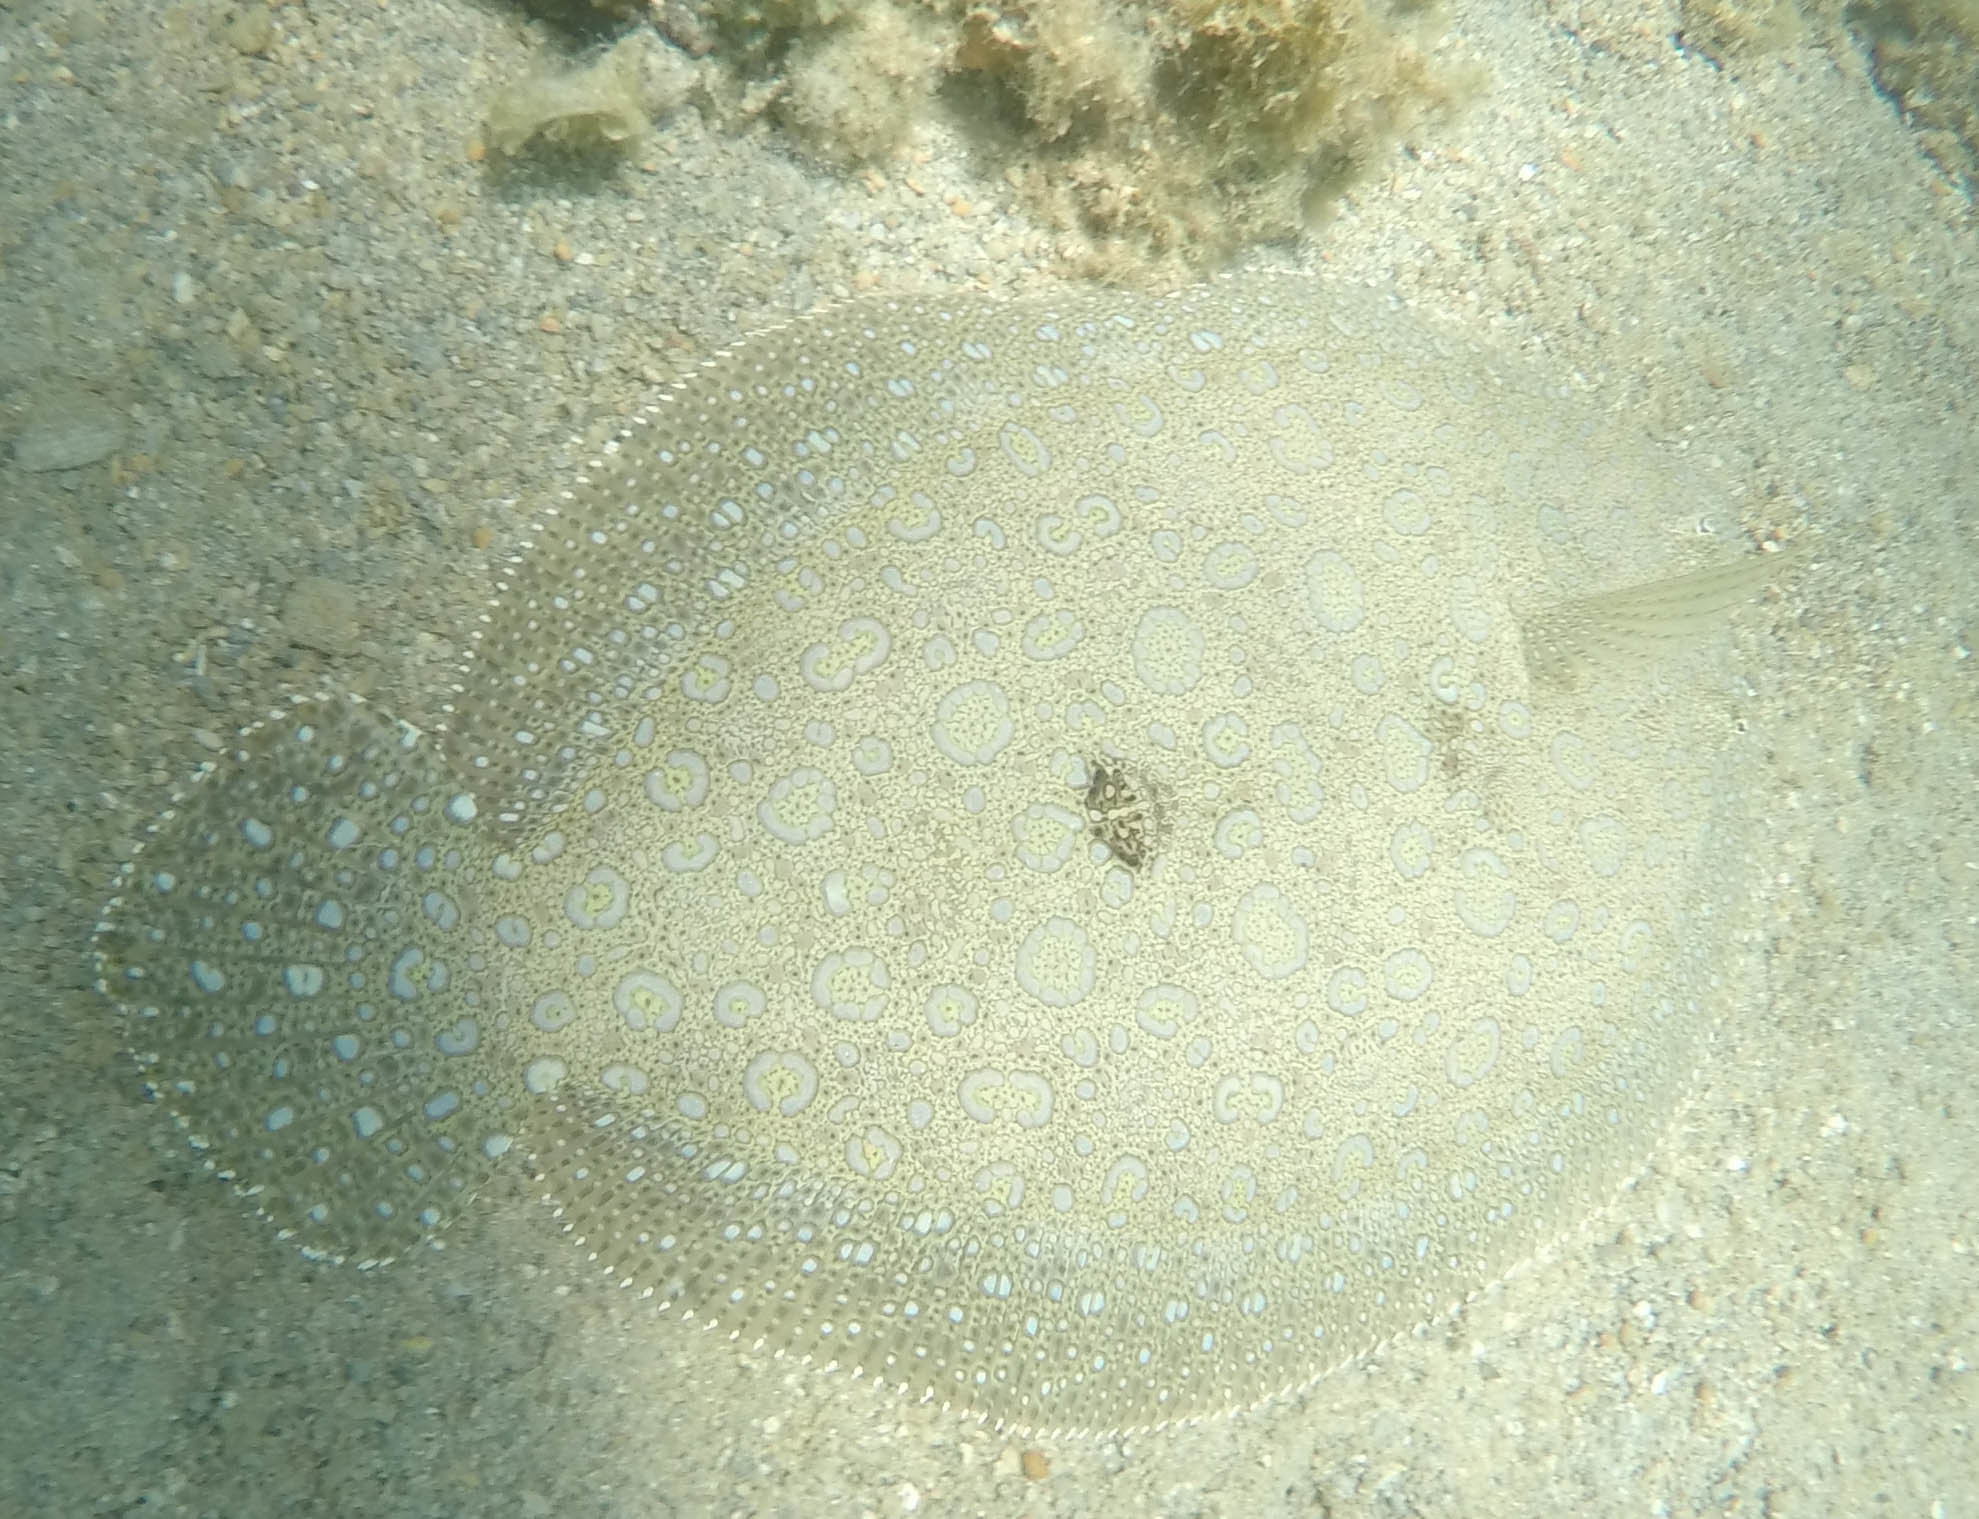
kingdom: Animalia
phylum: Chordata
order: Pleuronectiformes
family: Bothidae
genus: Bothus
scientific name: Bothus mancus
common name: Flowery flounder
